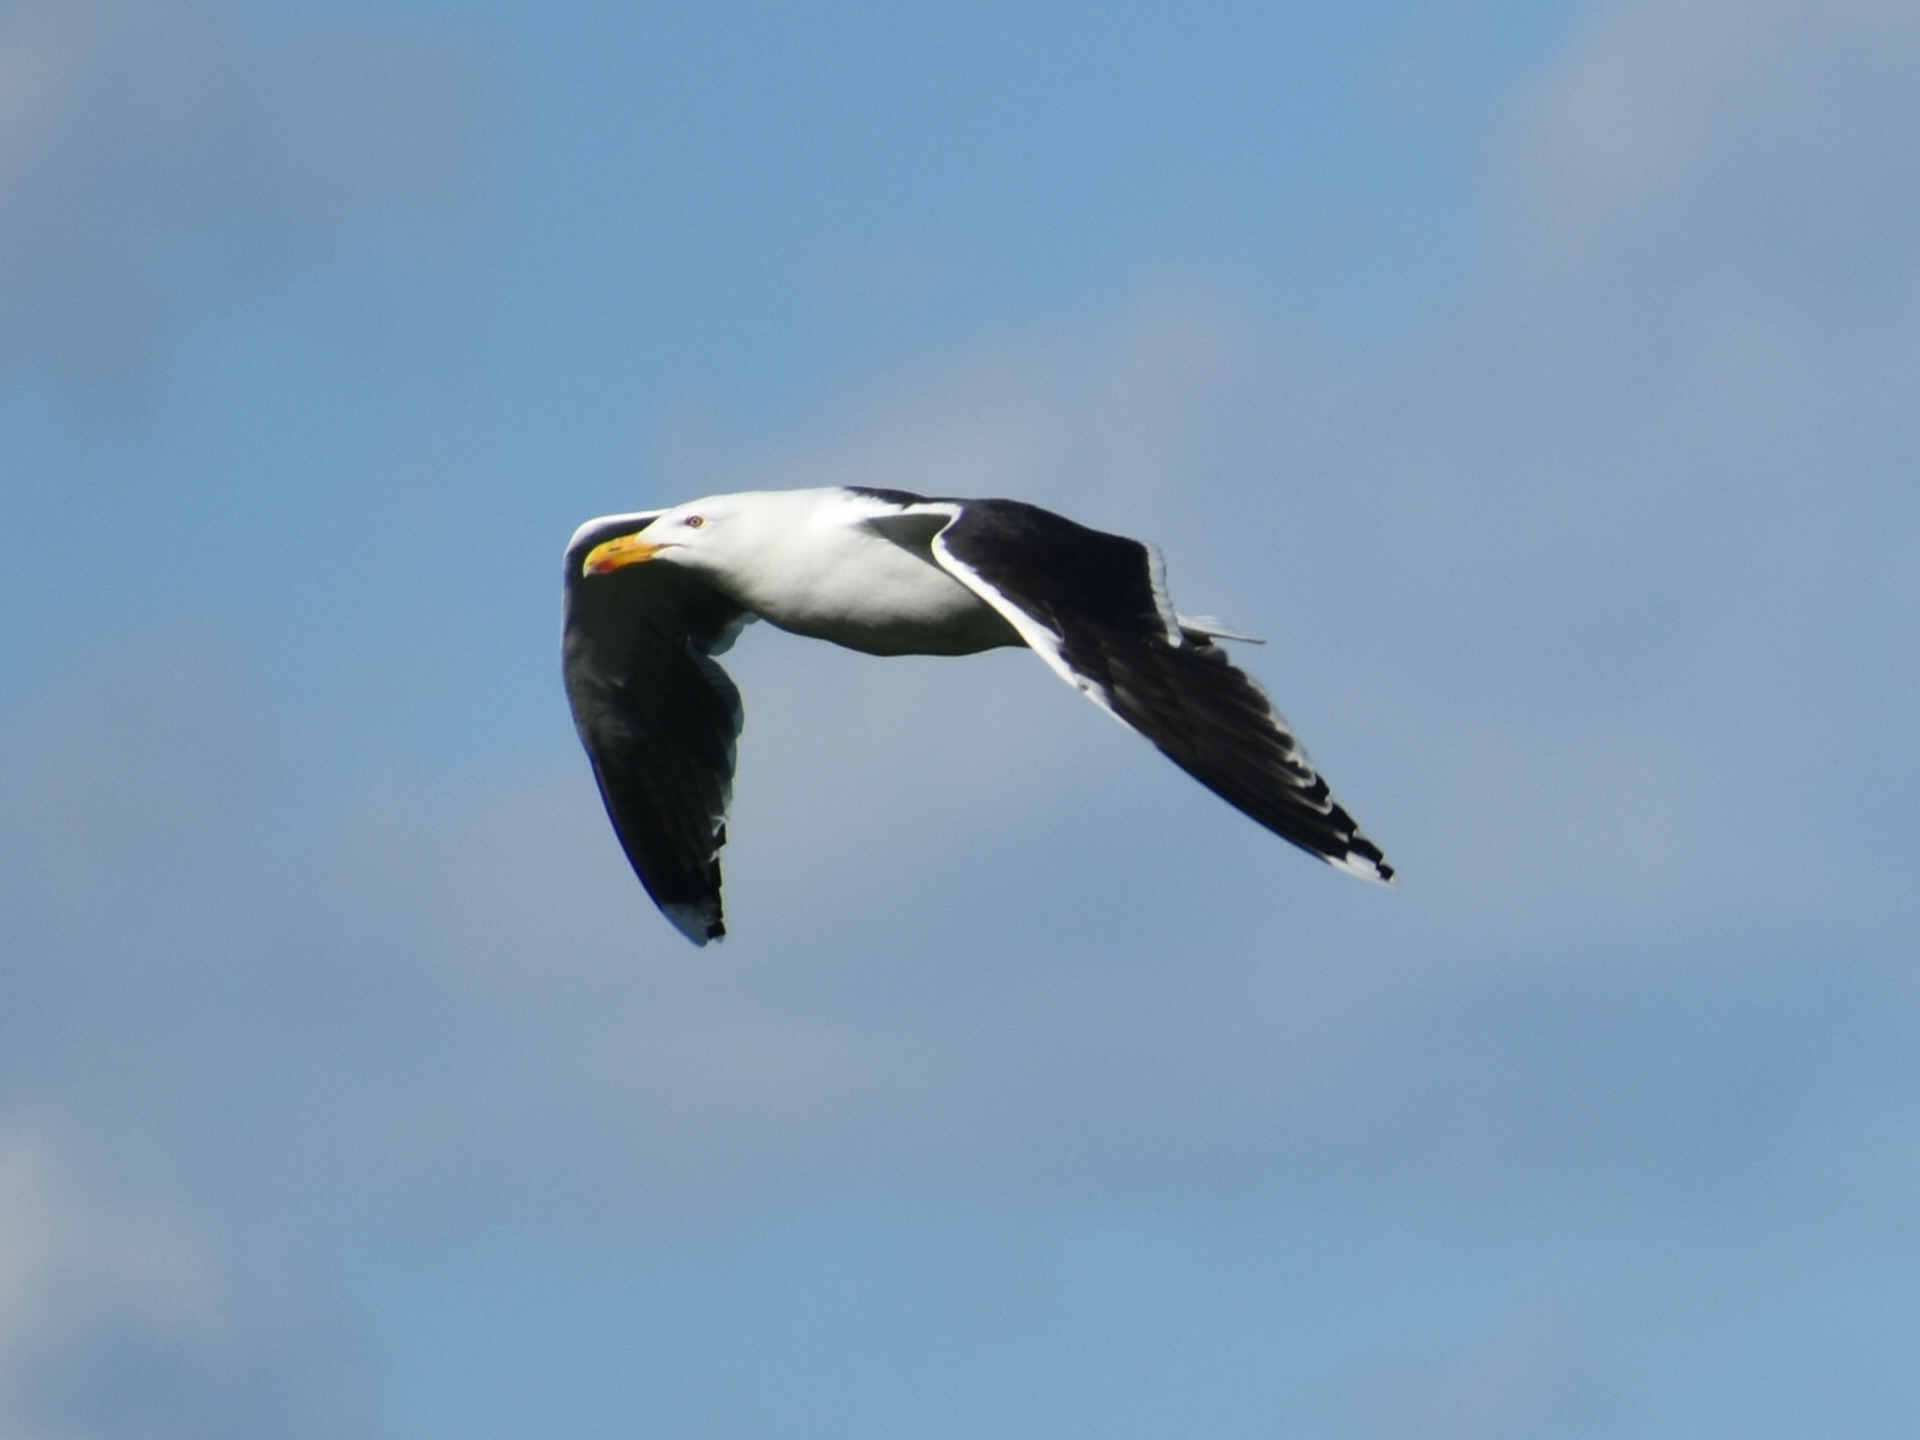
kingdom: Animalia
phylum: Chordata
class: Aves
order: Charadriiformes
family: Laridae
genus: Larus
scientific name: Larus marinus
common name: Great black-backed gull
